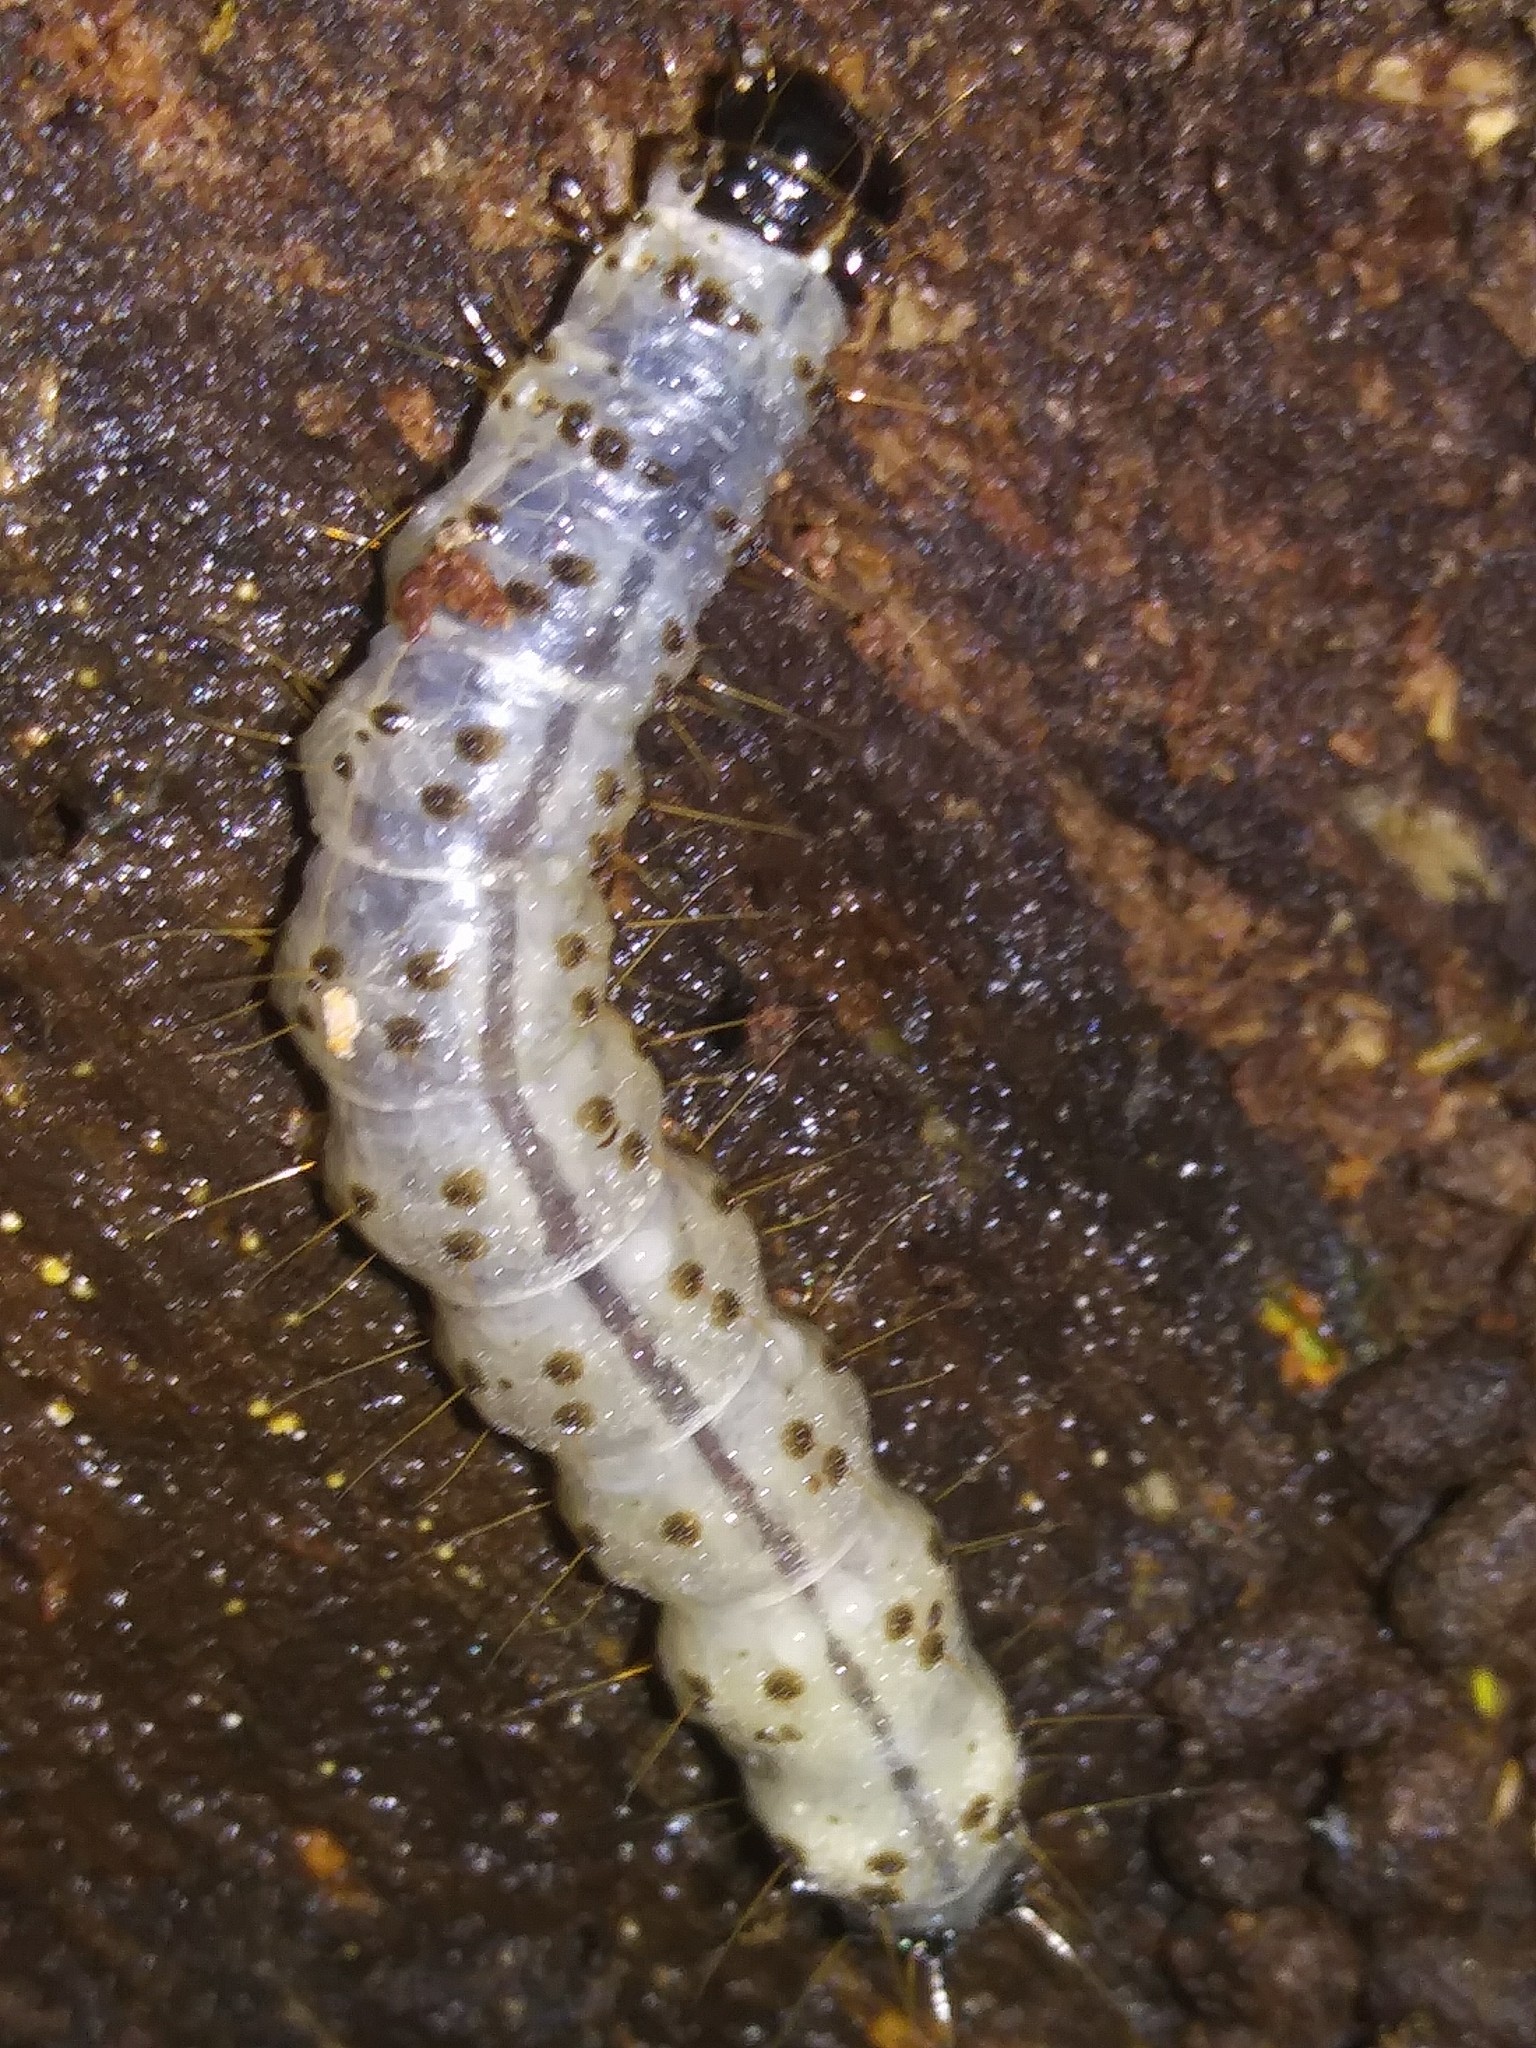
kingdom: Animalia
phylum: Arthropoda
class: Insecta
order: Lepidoptera
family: Erebidae
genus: Scolecocampa
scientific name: Scolecocampa liburna
